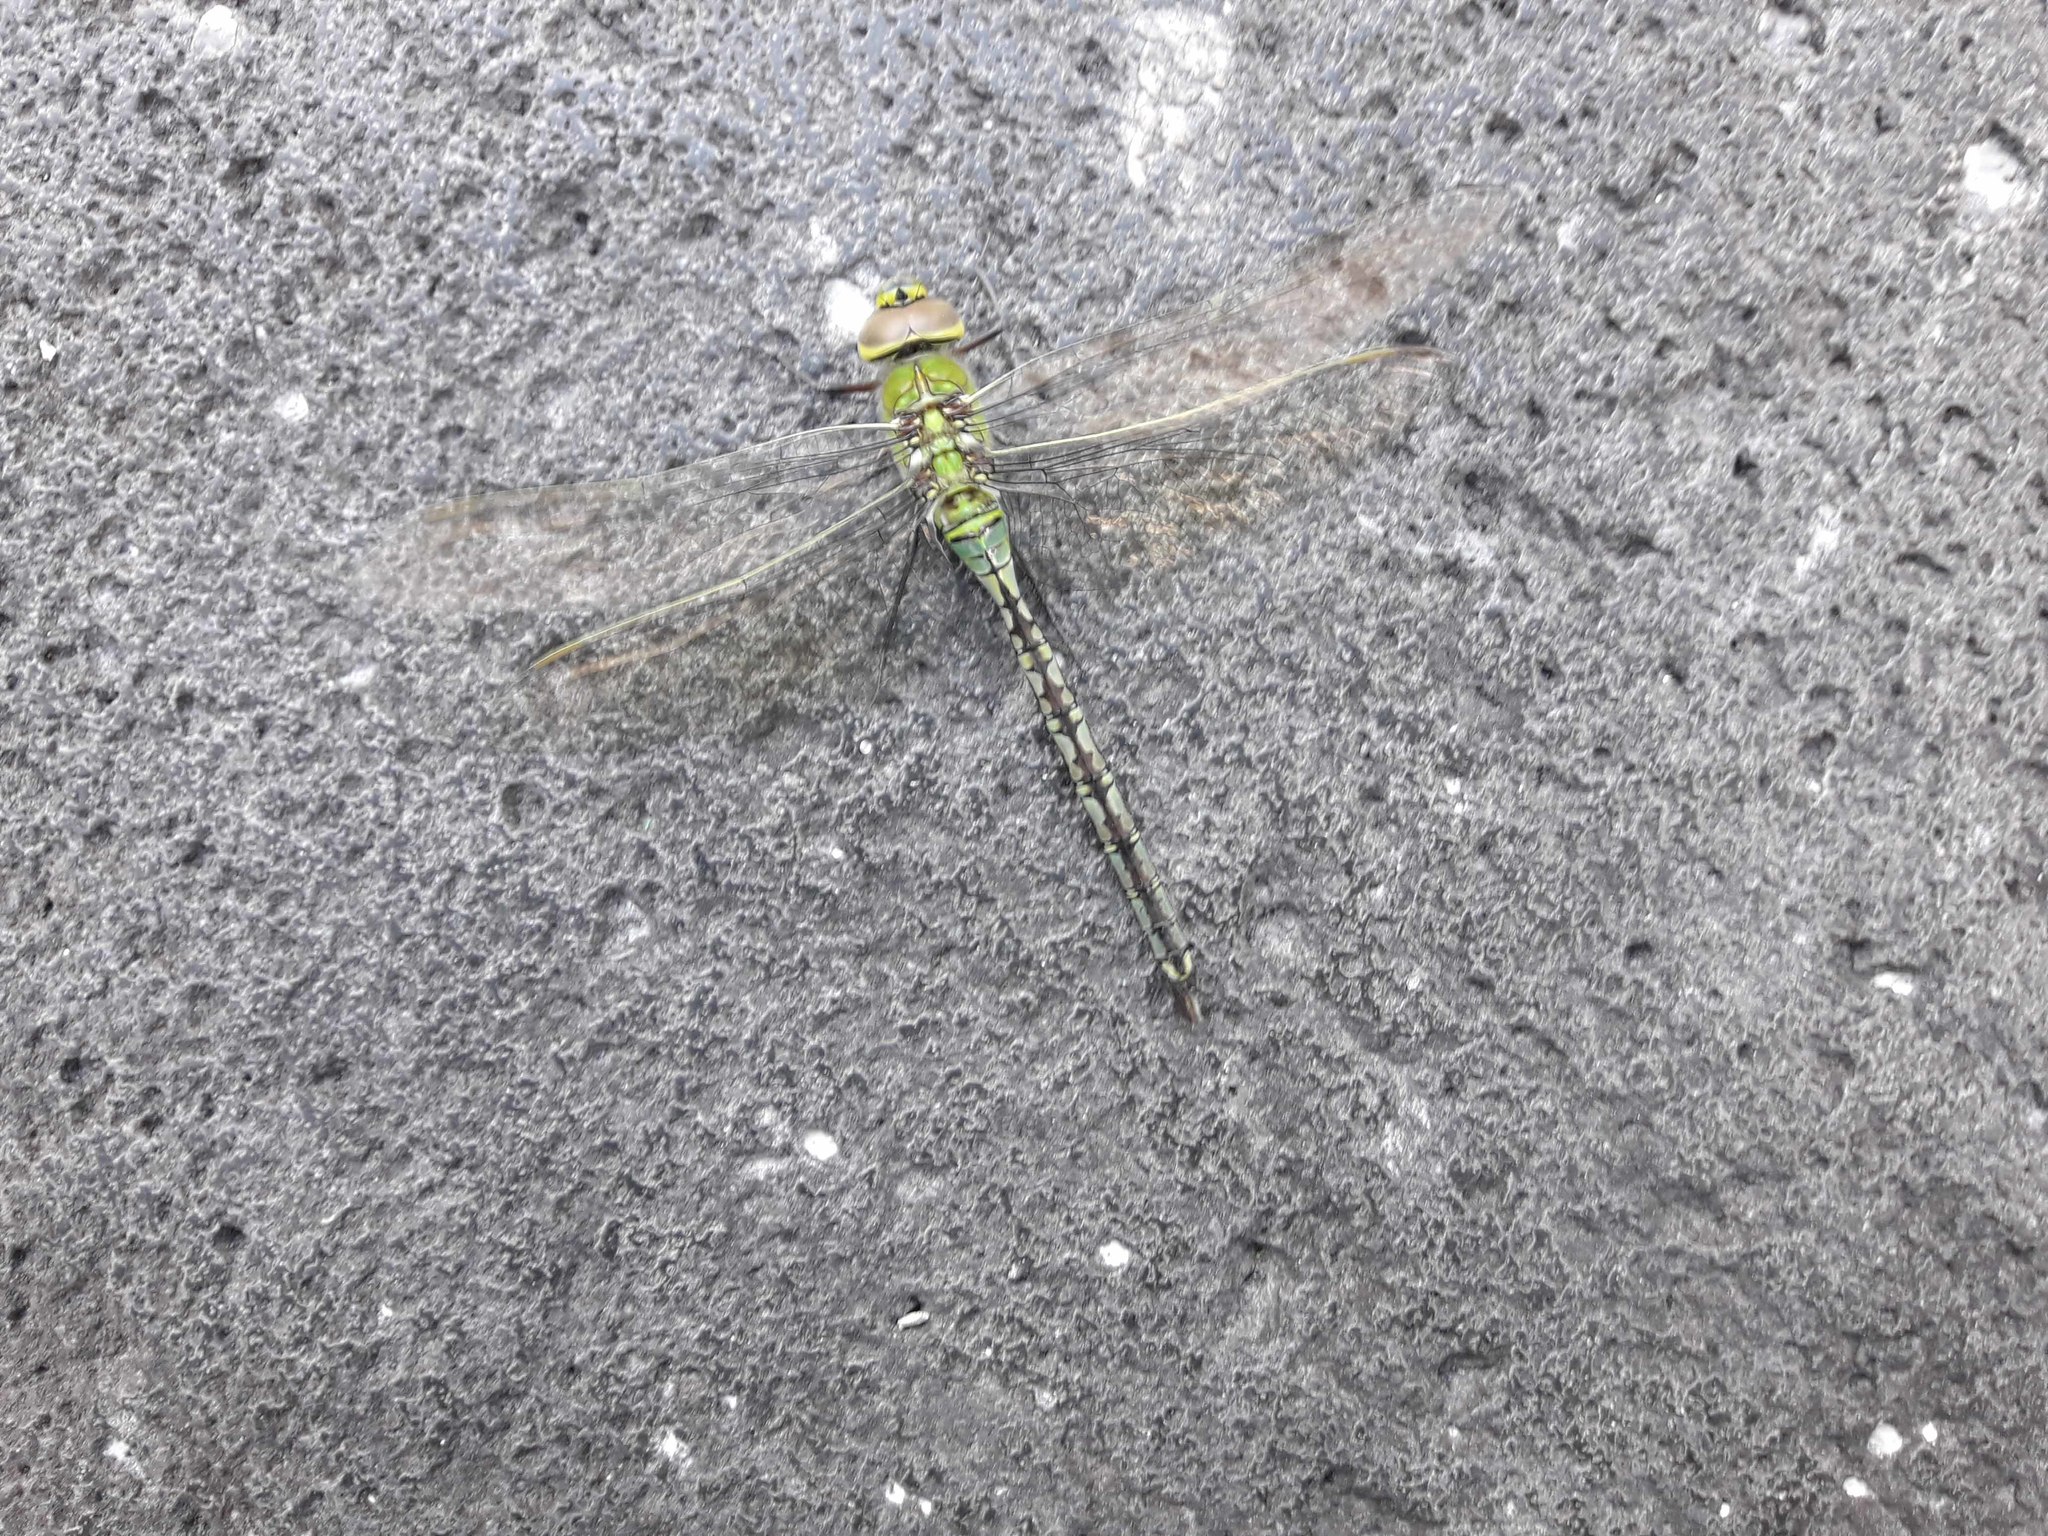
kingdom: Animalia
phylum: Arthropoda
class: Insecta
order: Odonata
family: Aeshnidae
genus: Anax
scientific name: Anax imperator
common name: Emperor dragonfly
